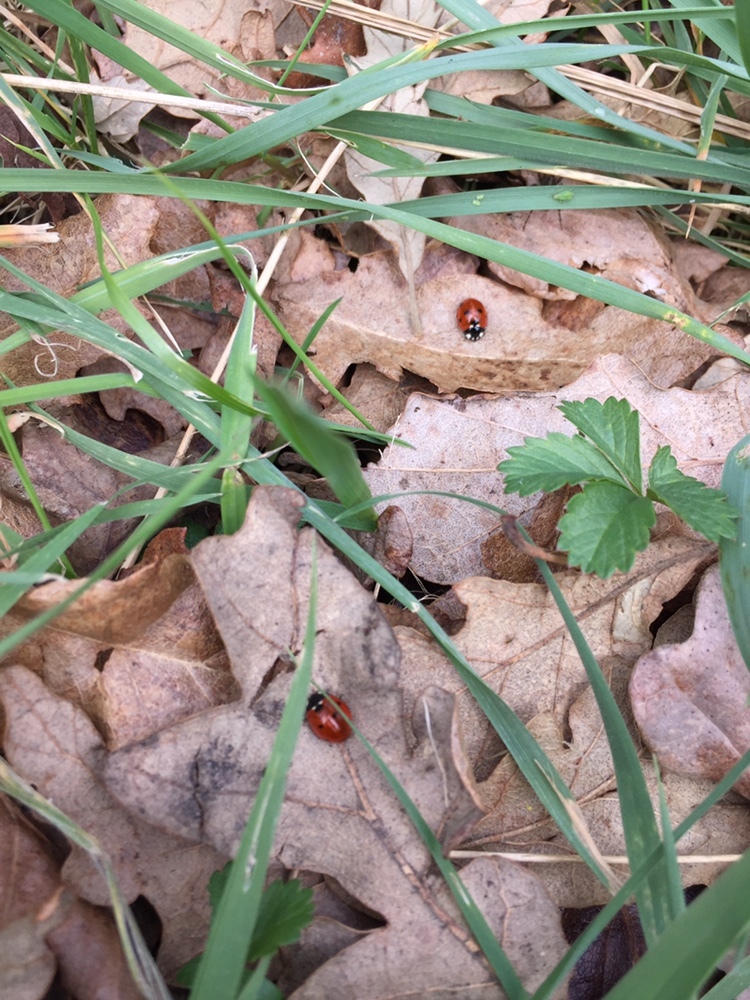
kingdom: Animalia
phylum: Arthropoda
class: Insecta
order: Coleoptera
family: Coccinellidae
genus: Coccinella
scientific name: Coccinella septempunctata
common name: Sevenspotted lady beetle
